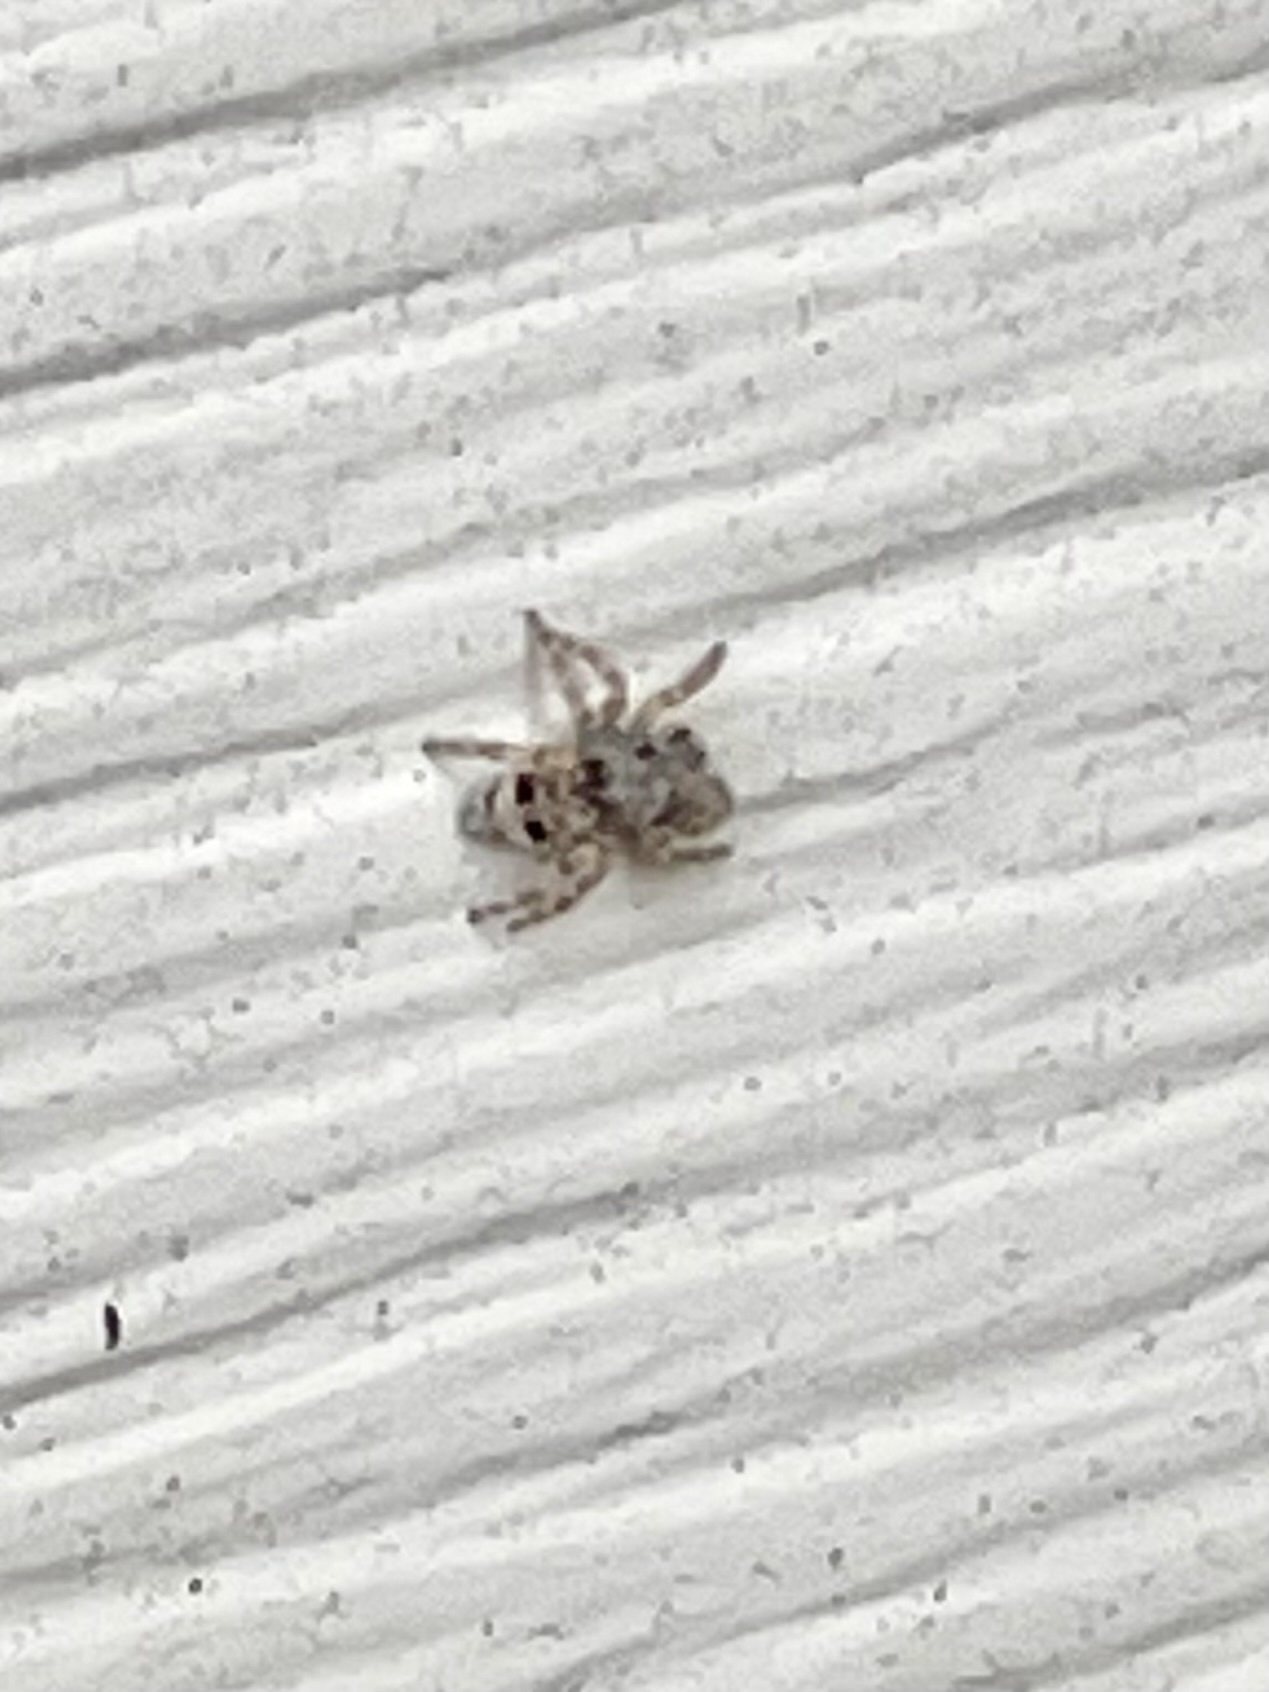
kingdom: Animalia
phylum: Arthropoda
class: Arachnida
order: Araneae
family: Salticidae
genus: Attulus
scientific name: Attulus fasciger
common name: Asiatic wall jumping spider
